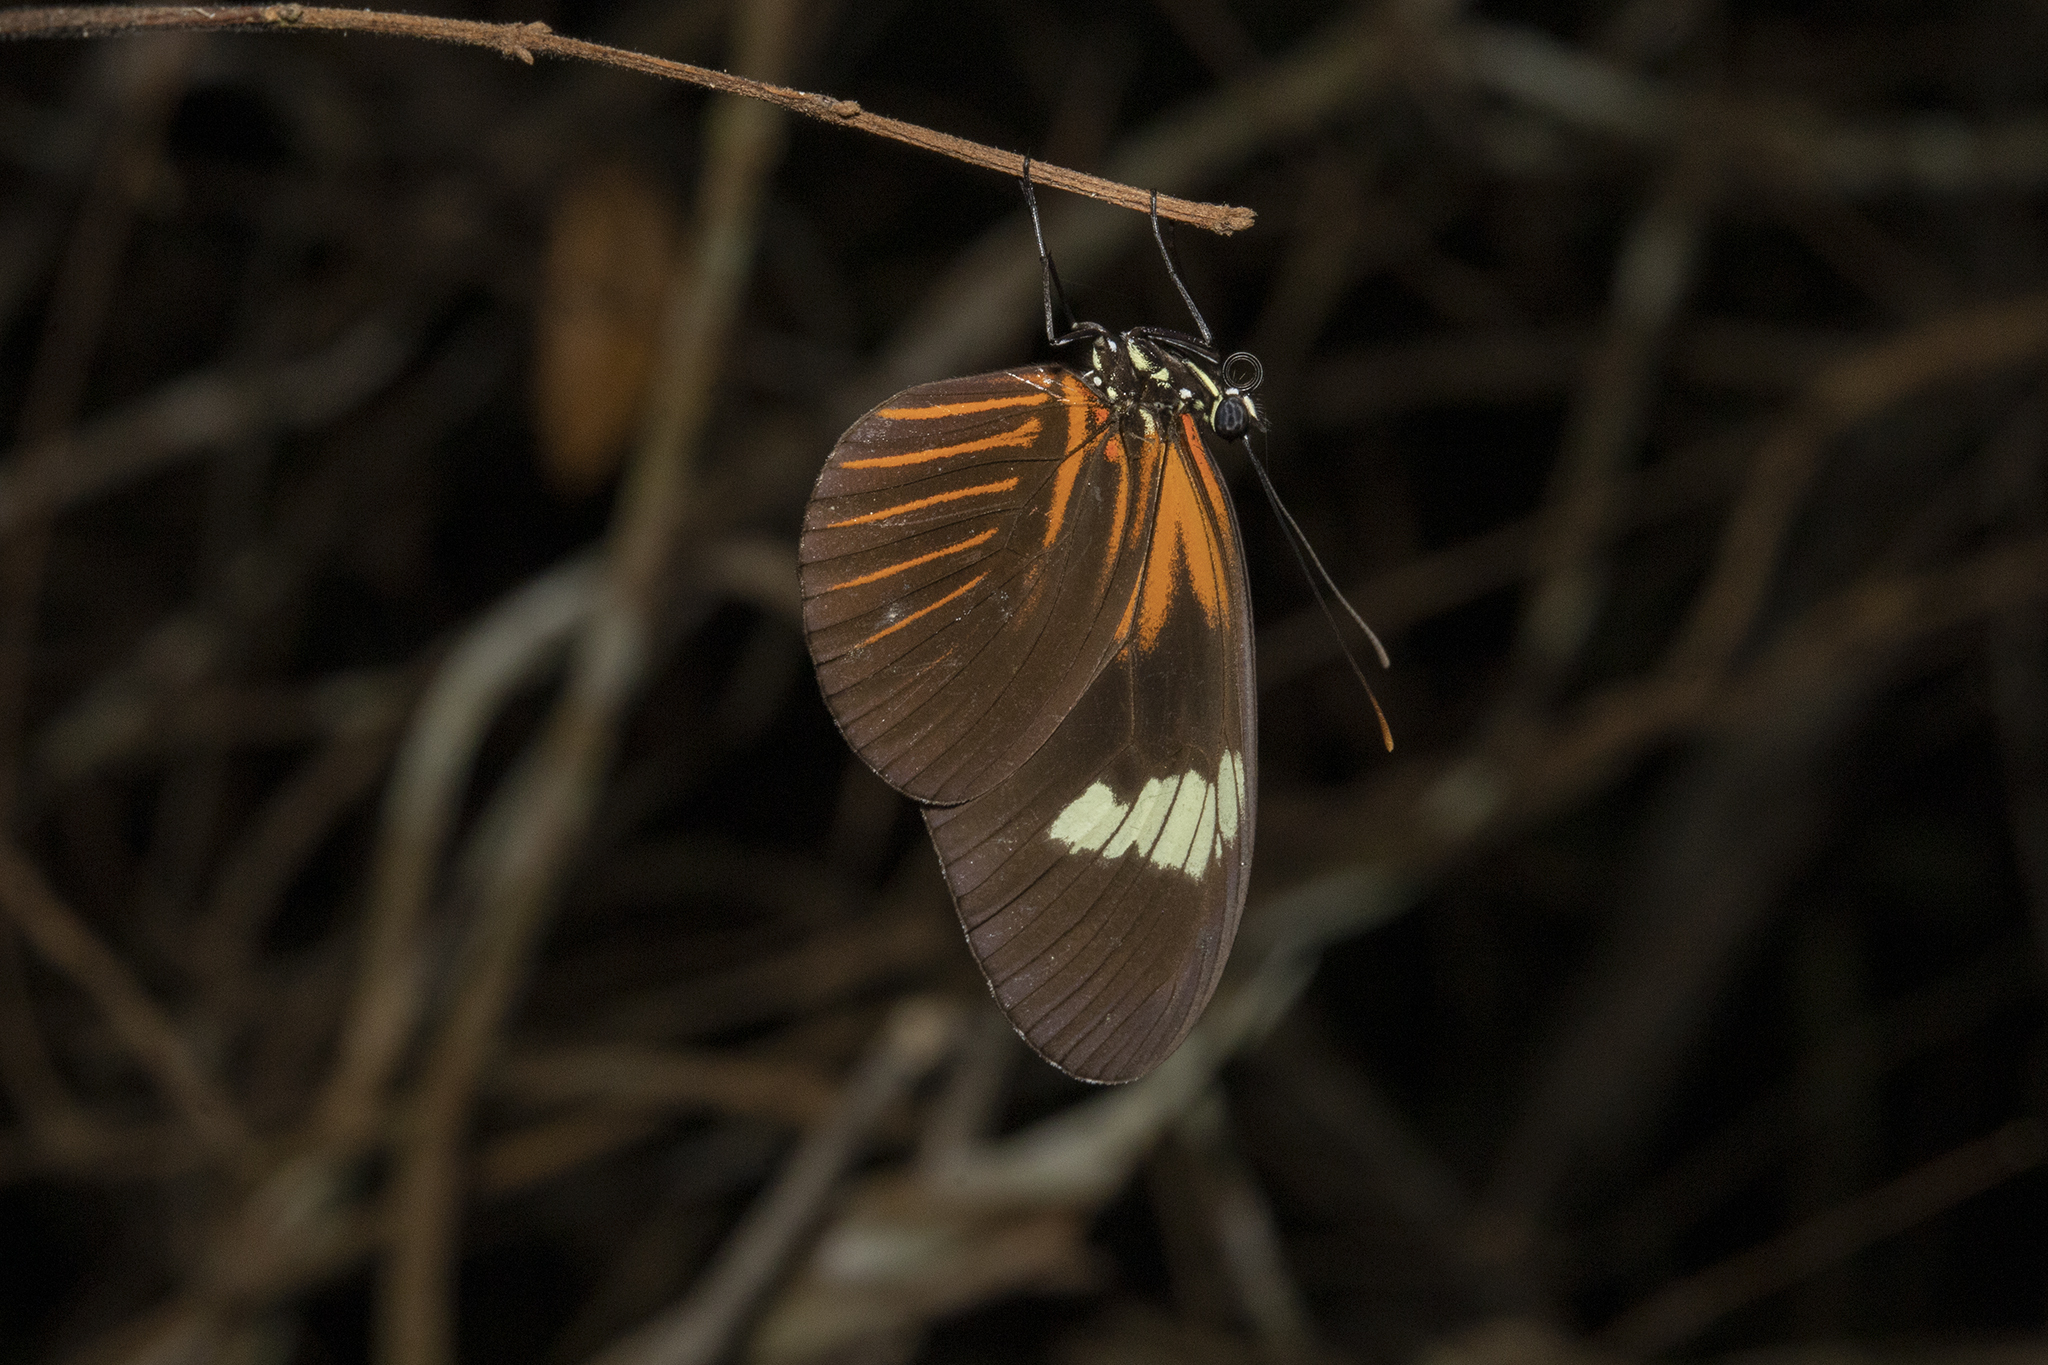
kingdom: Animalia
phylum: Arthropoda
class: Insecta
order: Lepidoptera
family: Nymphalidae
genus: Heliconius
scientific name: Heliconius melpomene
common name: Postman
